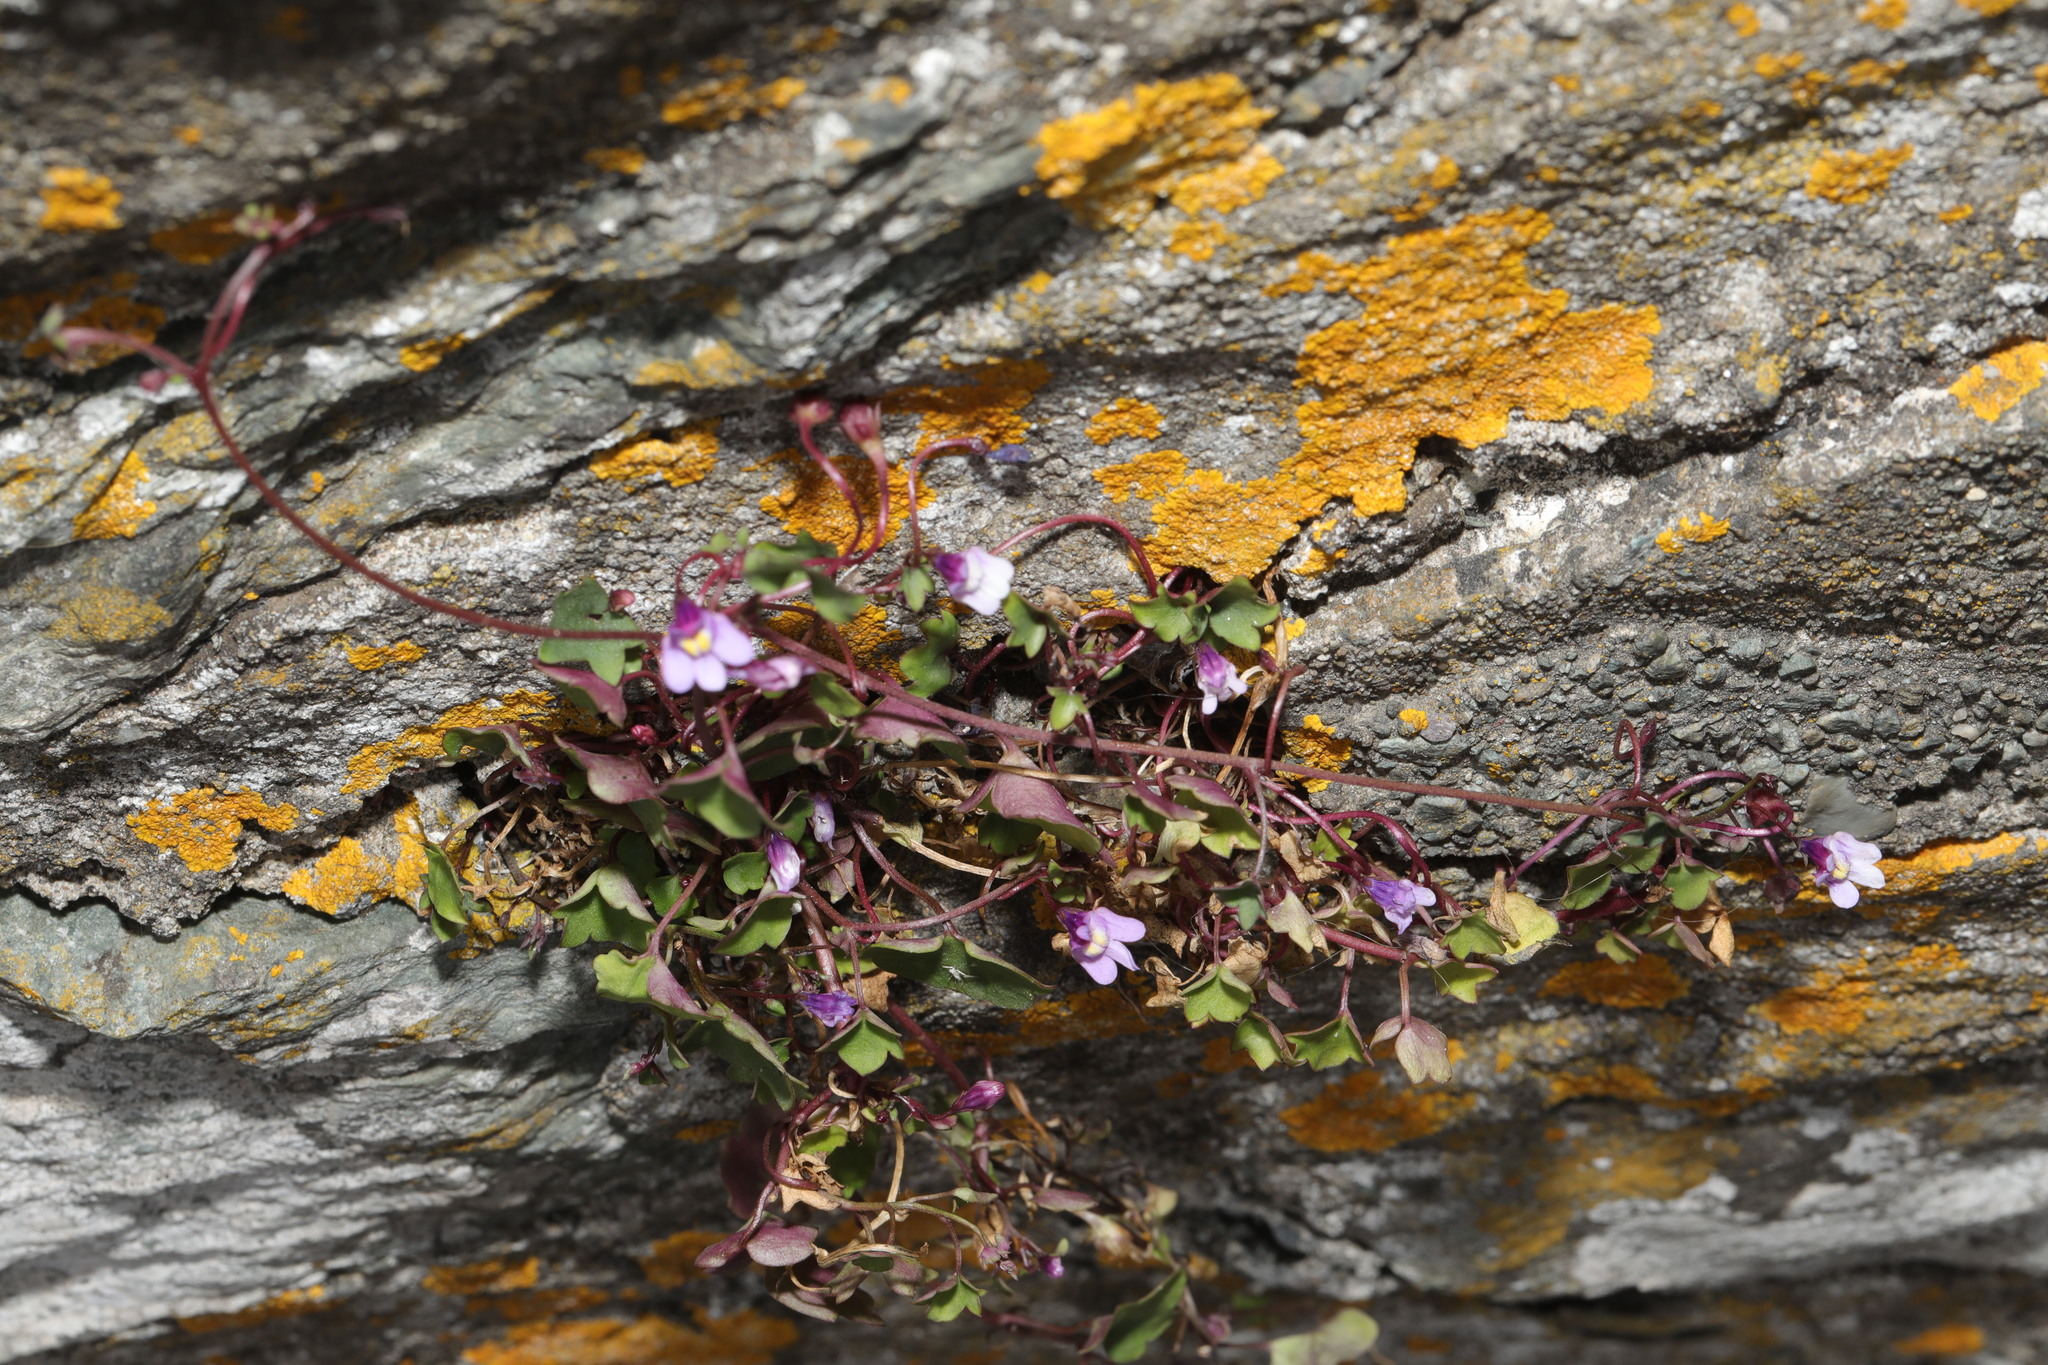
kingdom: Plantae
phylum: Tracheophyta
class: Magnoliopsida
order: Lamiales
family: Plantaginaceae
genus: Cymbalaria
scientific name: Cymbalaria muralis
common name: Ivy-leaved toadflax
